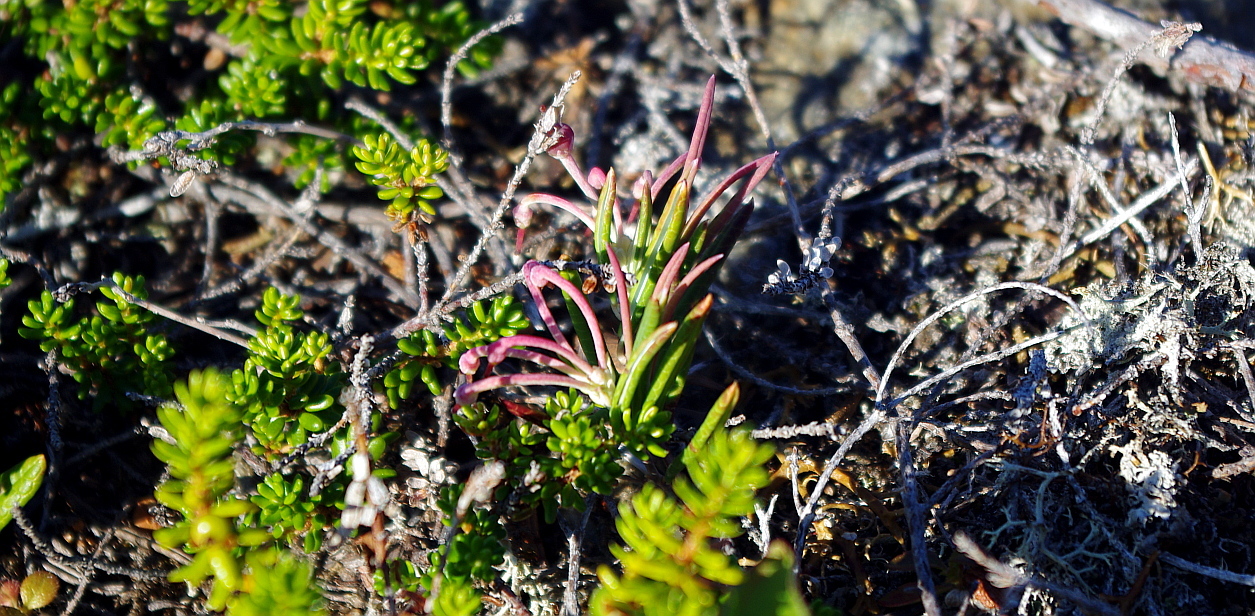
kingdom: Plantae
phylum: Tracheophyta
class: Magnoliopsida
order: Ericales
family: Ericaceae
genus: Andromeda
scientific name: Andromeda polifolia
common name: Bog-rosemary
